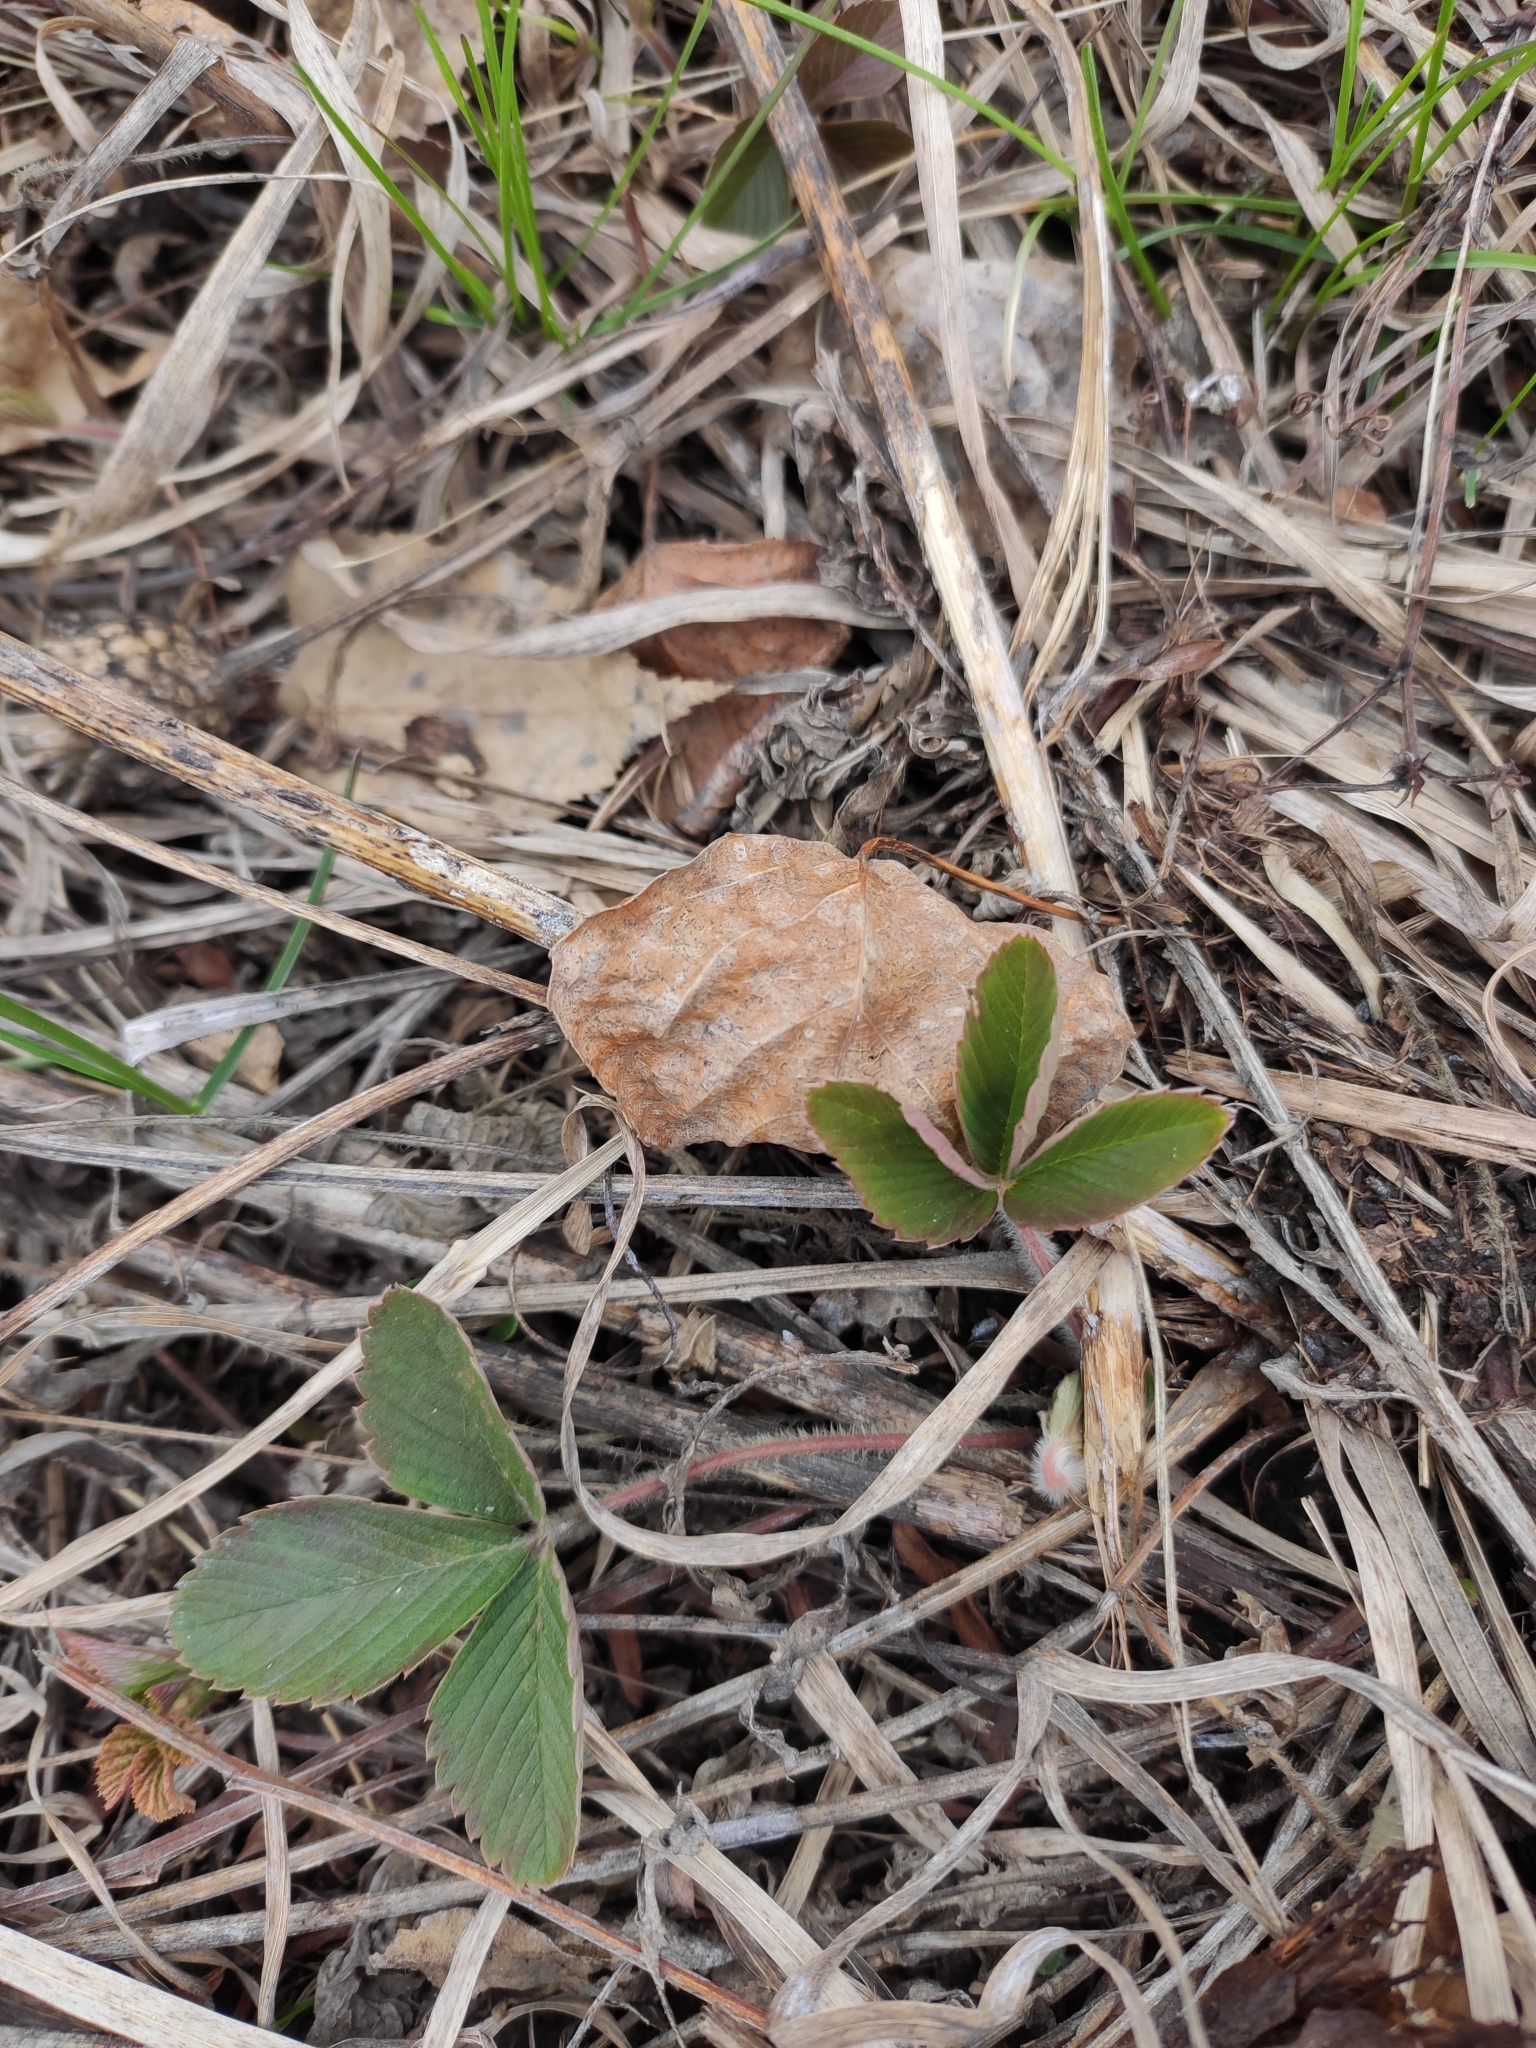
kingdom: Plantae
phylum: Tracheophyta
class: Magnoliopsida
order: Rosales
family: Rosaceae
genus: Fragaria
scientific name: Fragaria viridis
